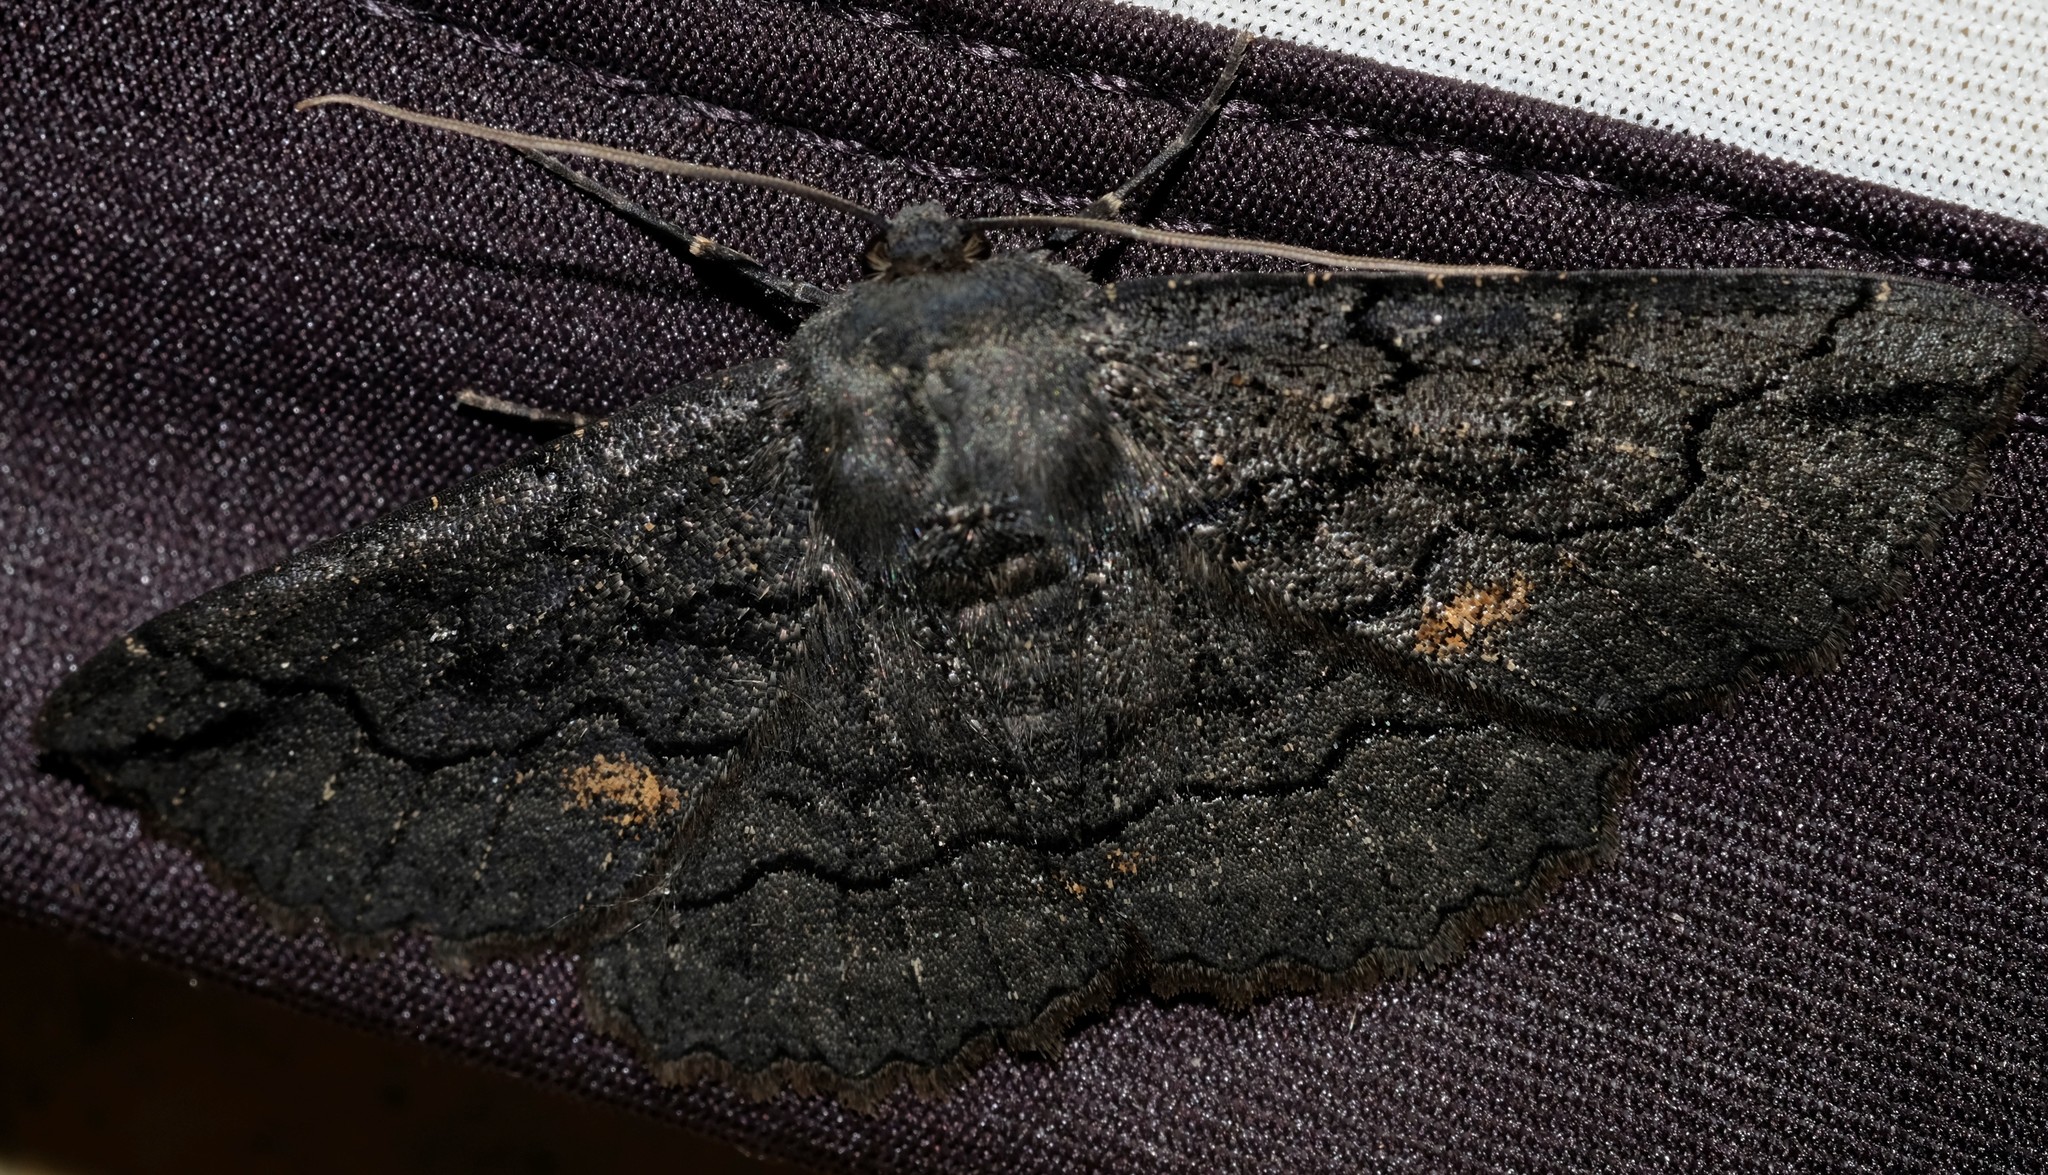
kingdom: Animalia
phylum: Arthropoda
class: Insecta
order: Lepidoptera
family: Geometridae
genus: Melanodes
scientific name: Melanodes anthracitaria
